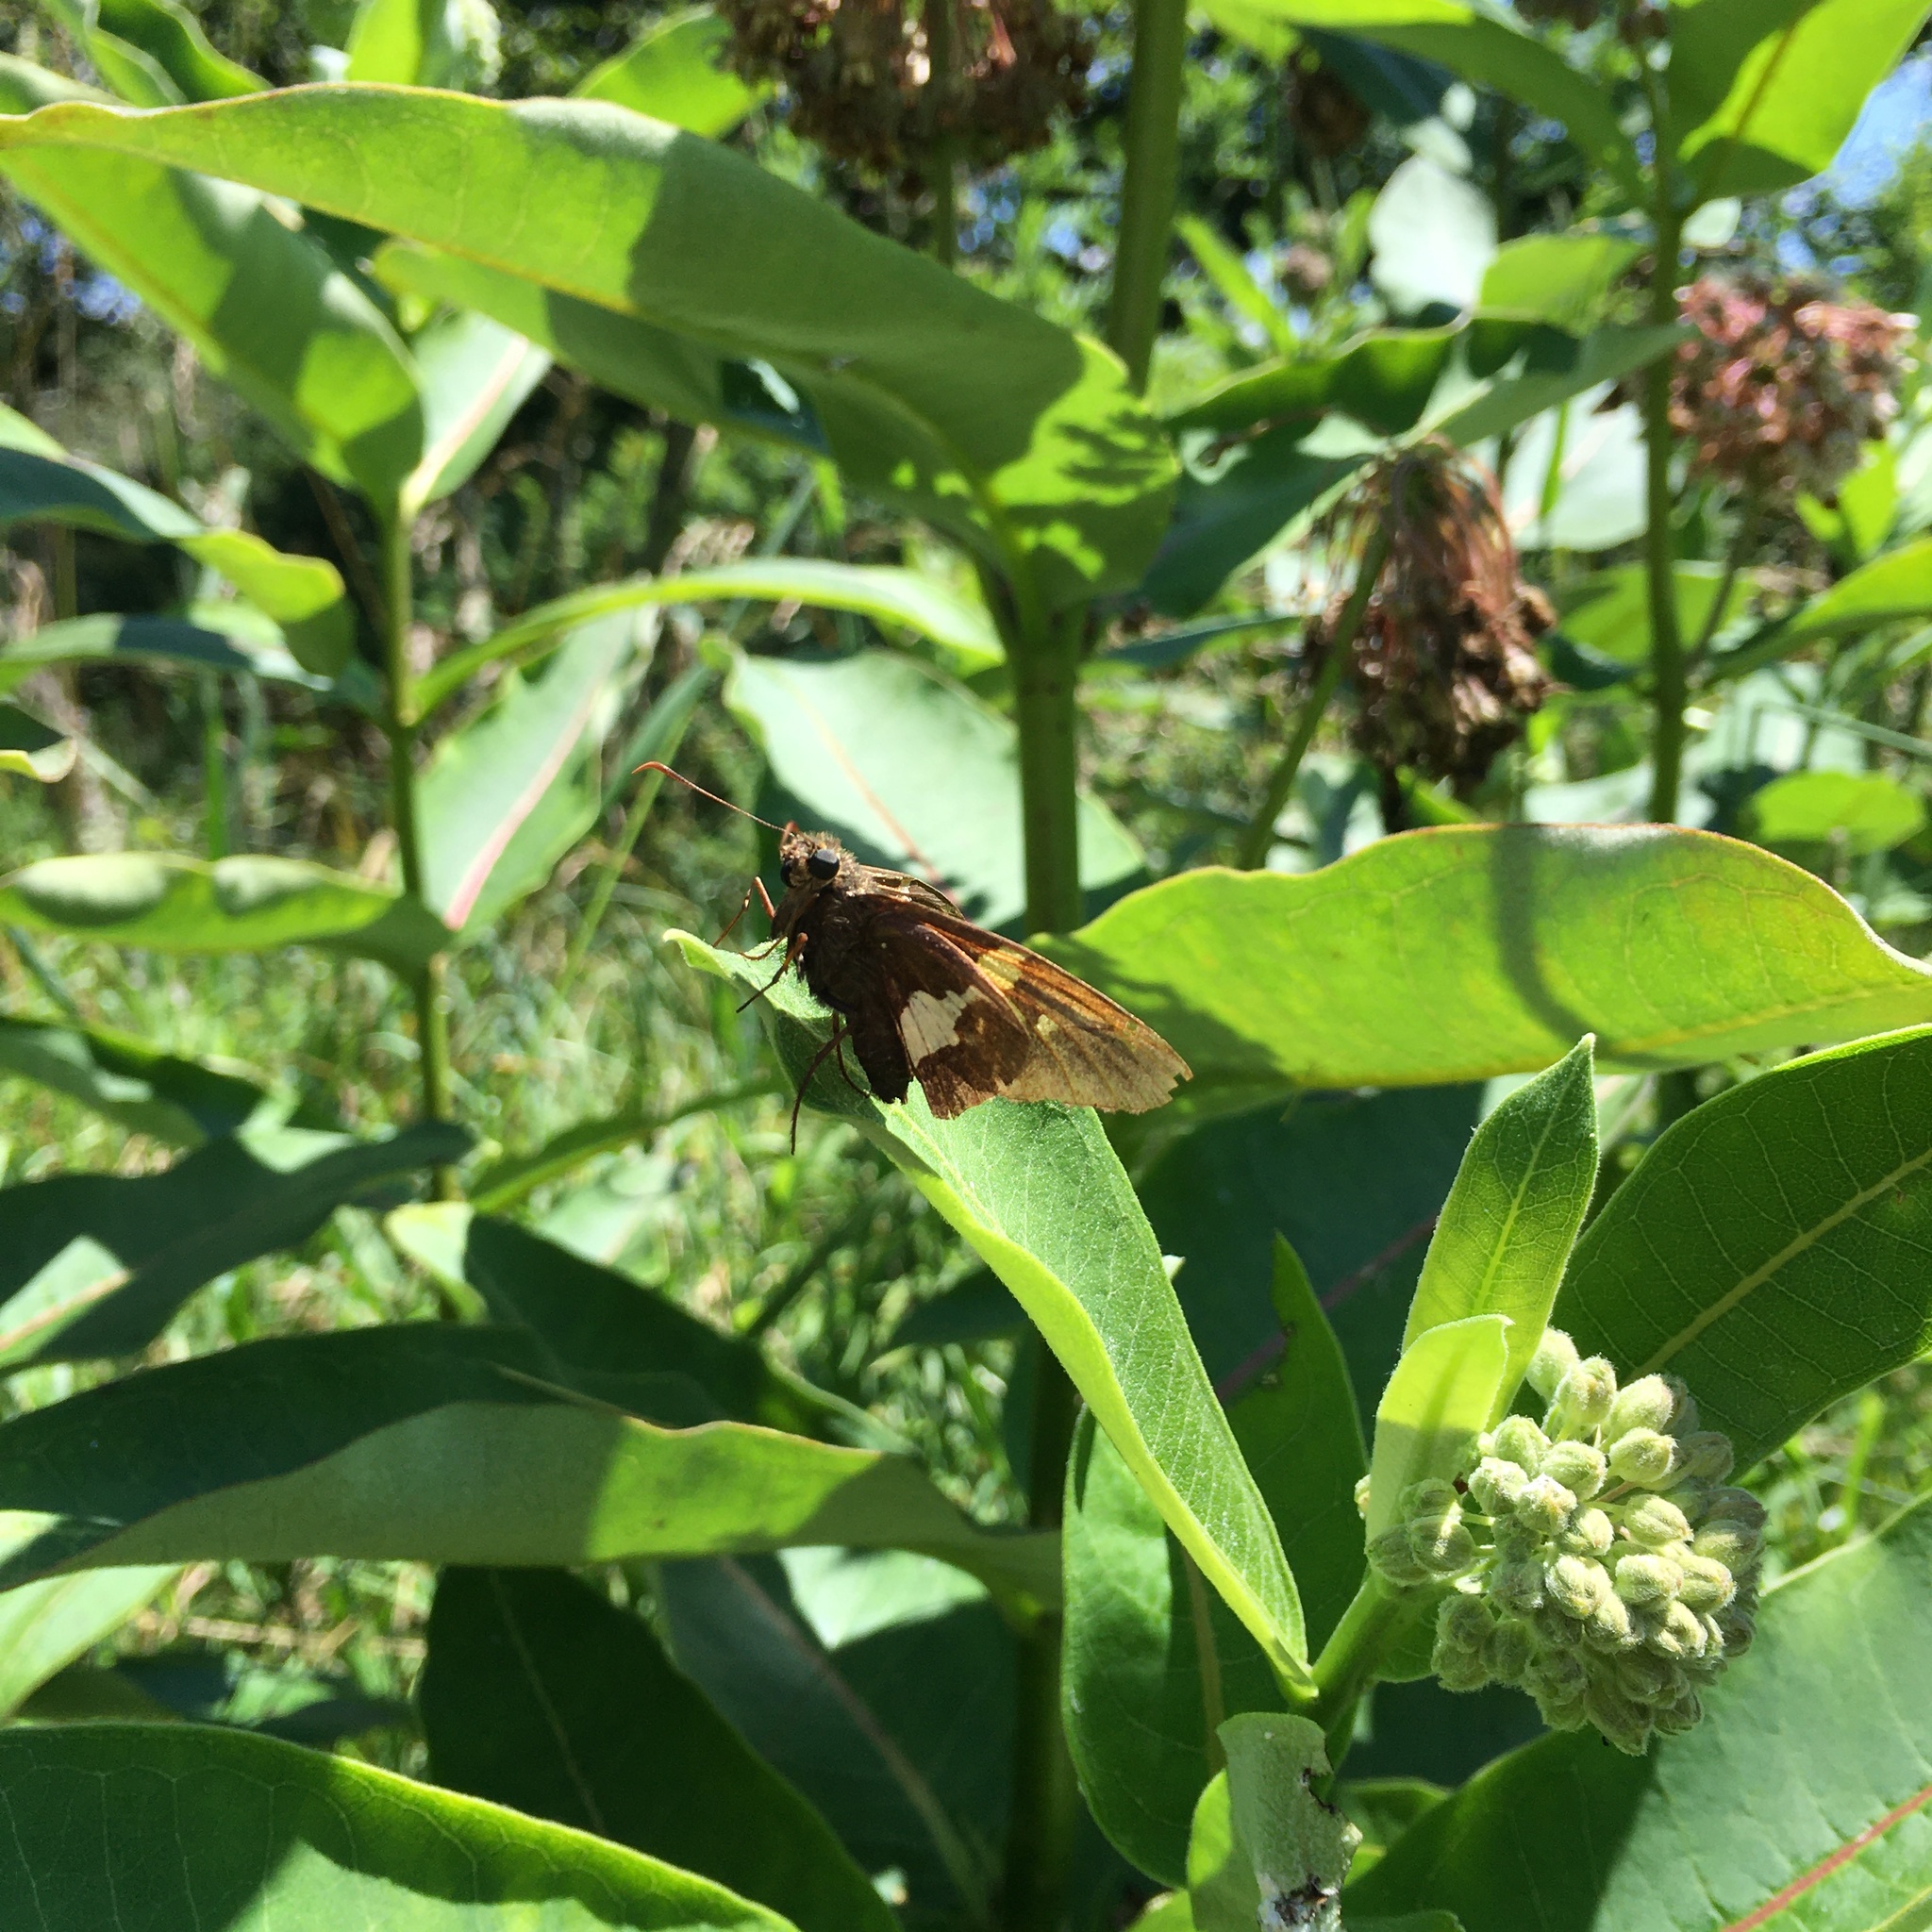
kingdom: Animalia
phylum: Arthropoda
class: Insecta
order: Lepidoptera
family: Hesperiidae
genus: Epargyreus
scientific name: Epargyreus clarus
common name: Silver-spotted skipper
